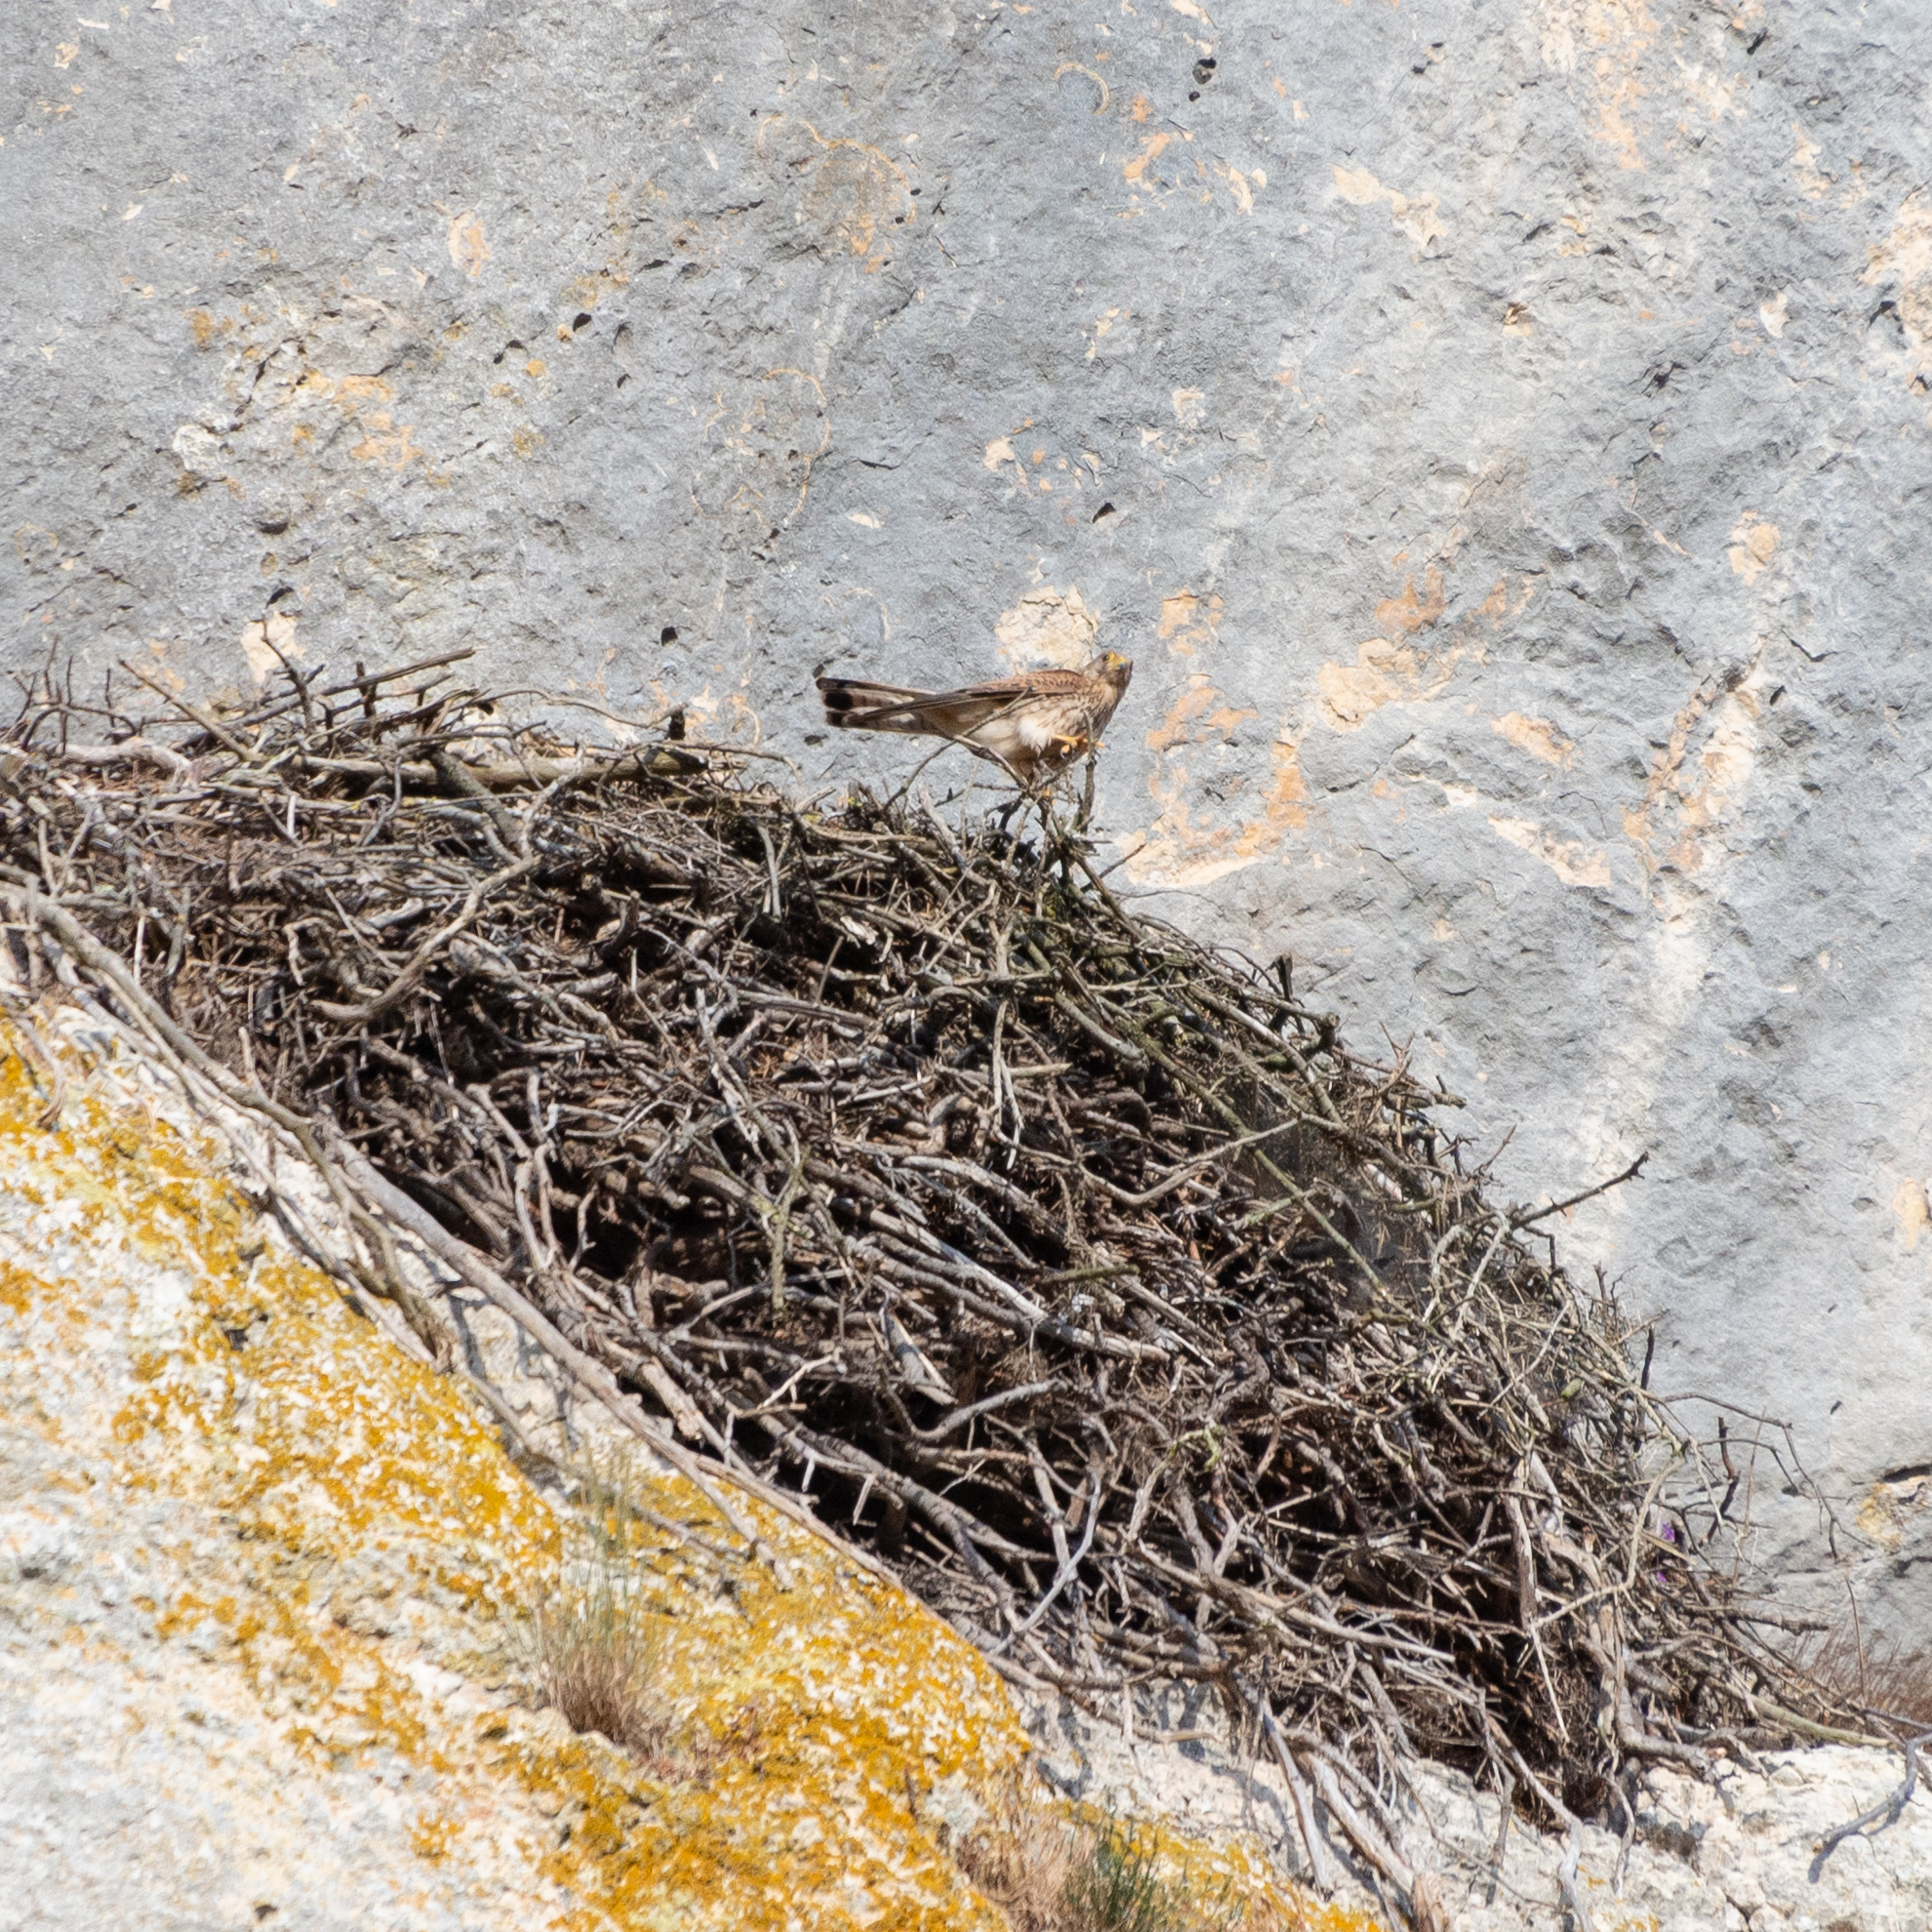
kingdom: Animalia
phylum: Chordata
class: Aves
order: Falconiformes
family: Falconidae
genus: Falco
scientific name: Falco tinnunculus
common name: Common kestrel
